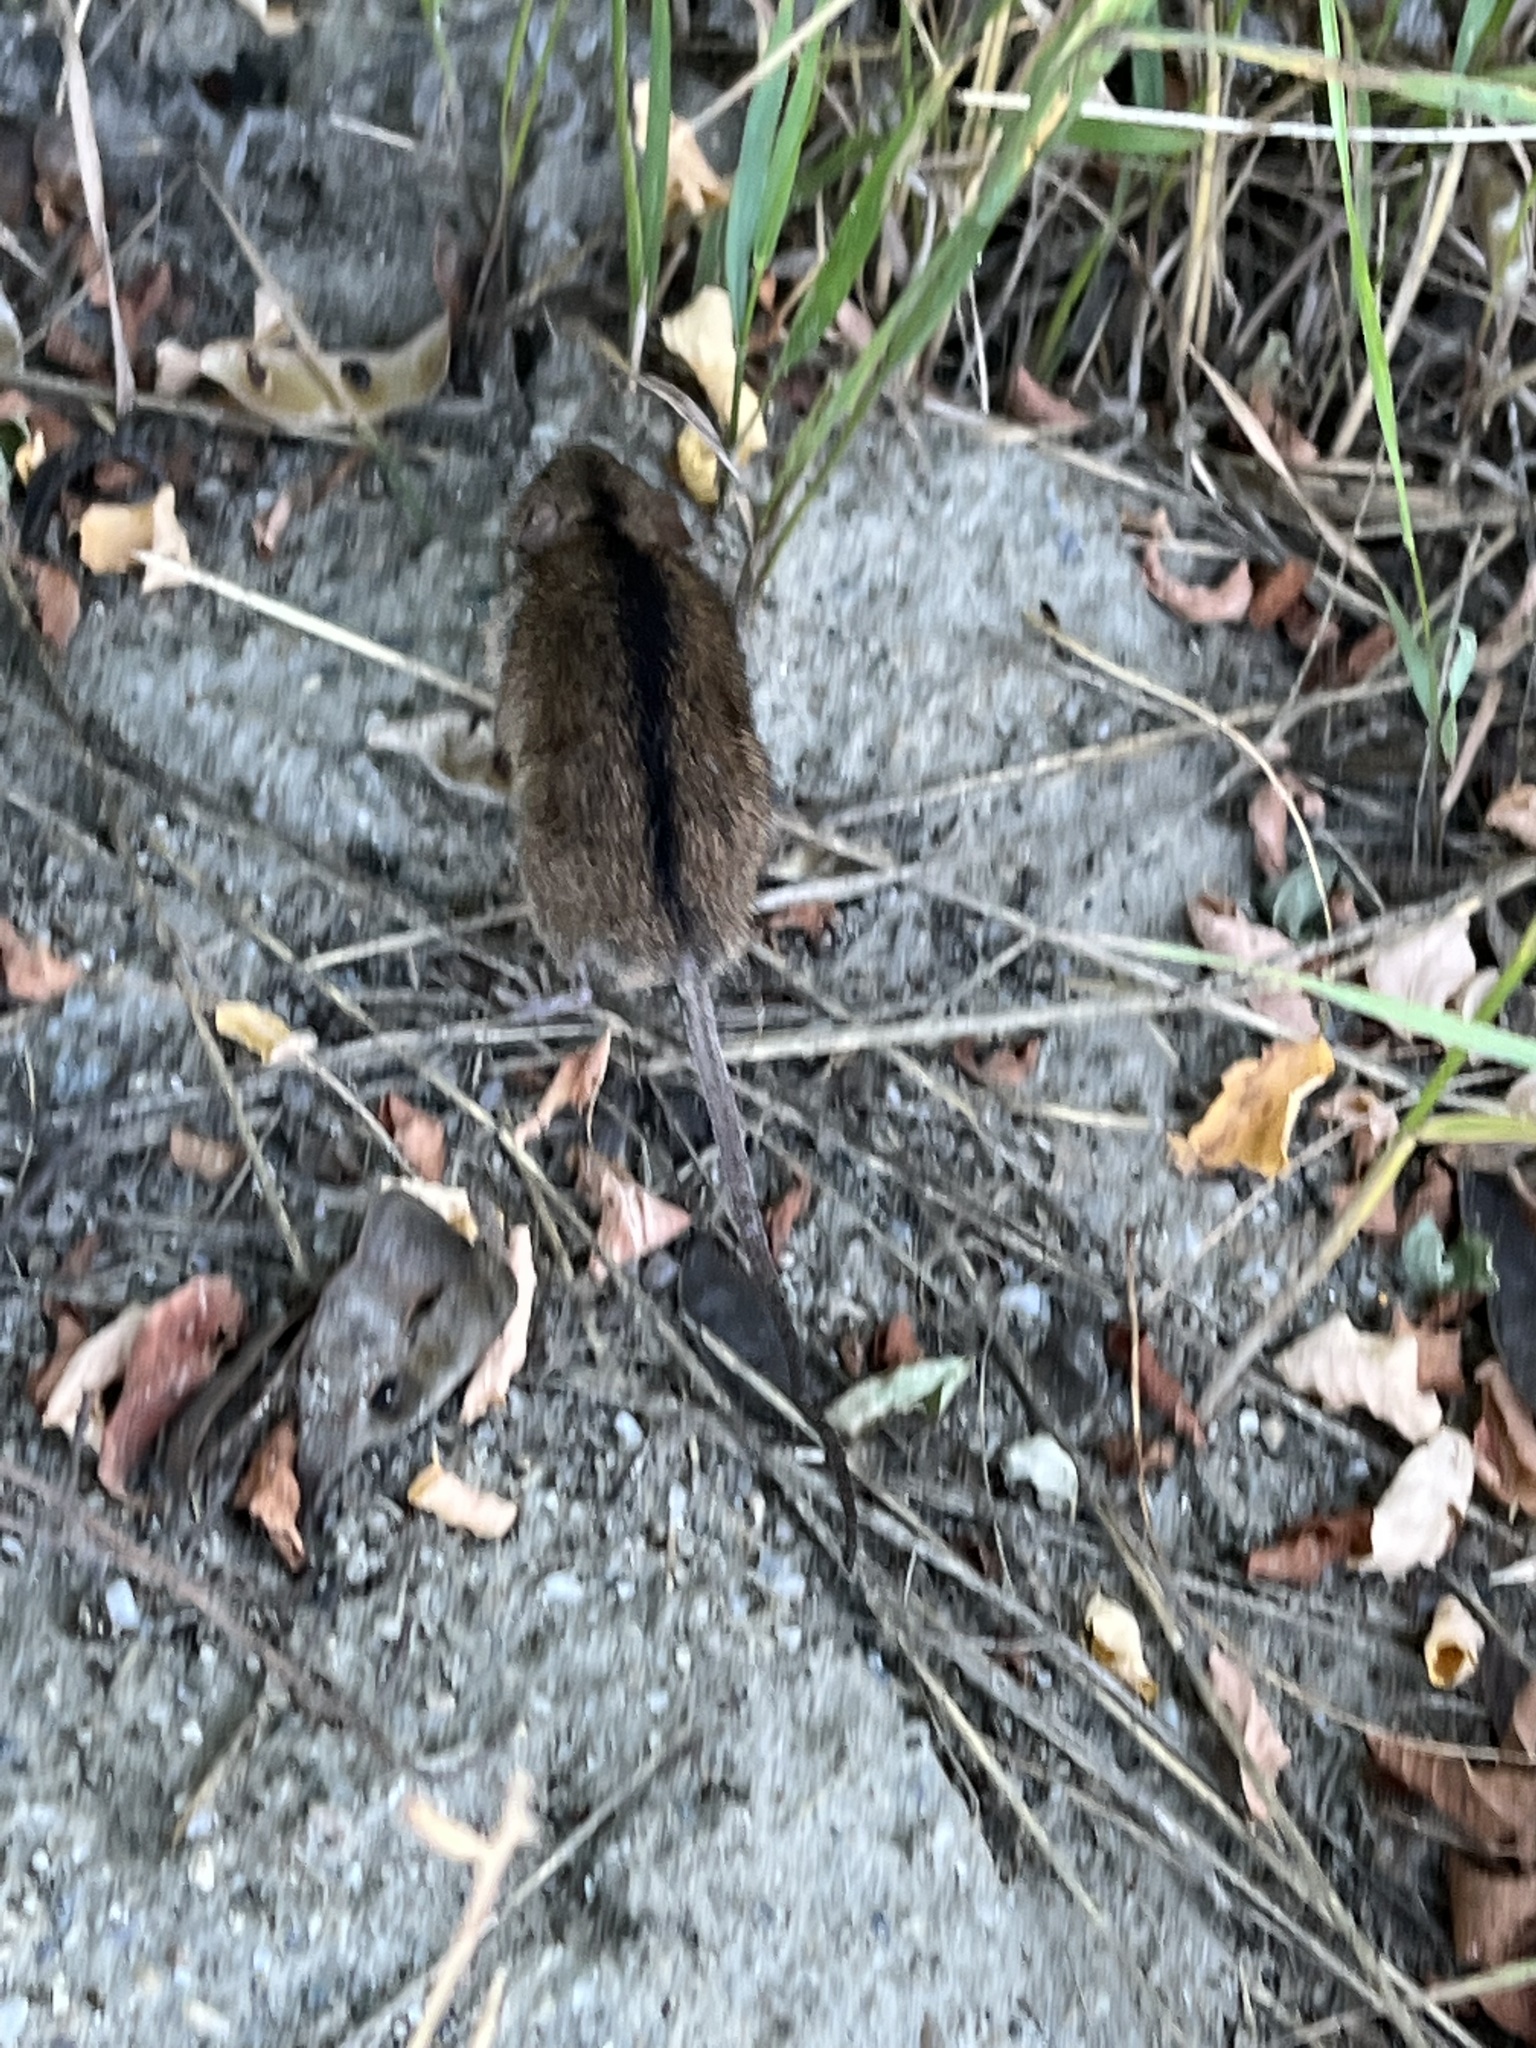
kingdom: Animalia
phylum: Chordata
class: Mammalia
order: Rodentia
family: Muridae
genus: Apodemus
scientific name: Apodemus agrarius
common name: Striped field mouse
